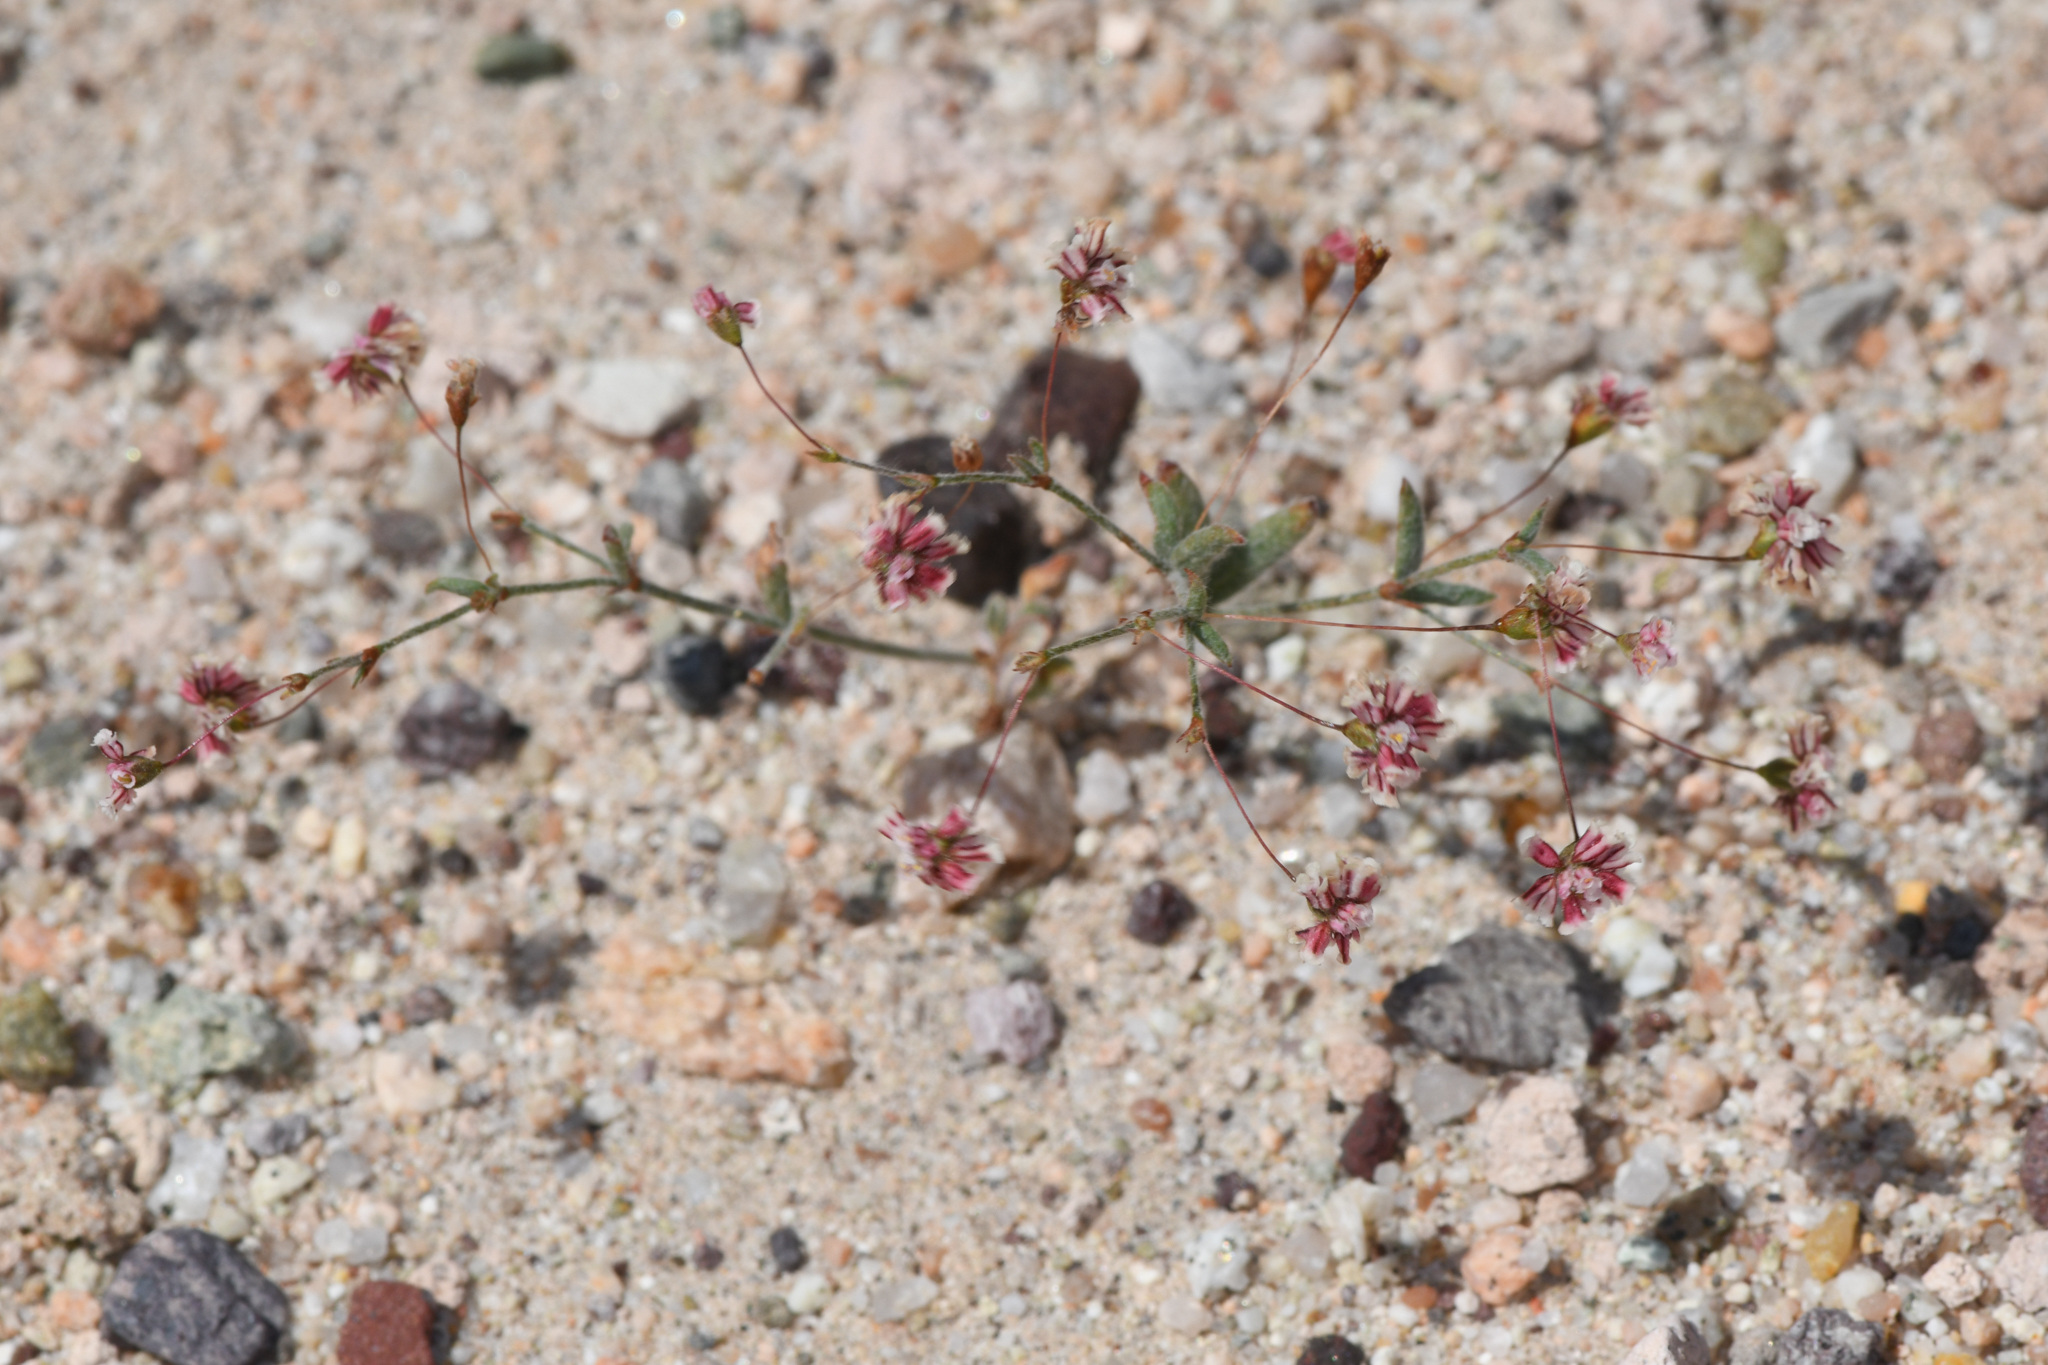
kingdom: Plantae
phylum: Tracheophyta
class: Magnoliopsida
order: Caryophyllales
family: Polygonaceae
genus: Eriogonum
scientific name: Eriogonum gracillimum
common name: Rose-and-white wild buckwheat
